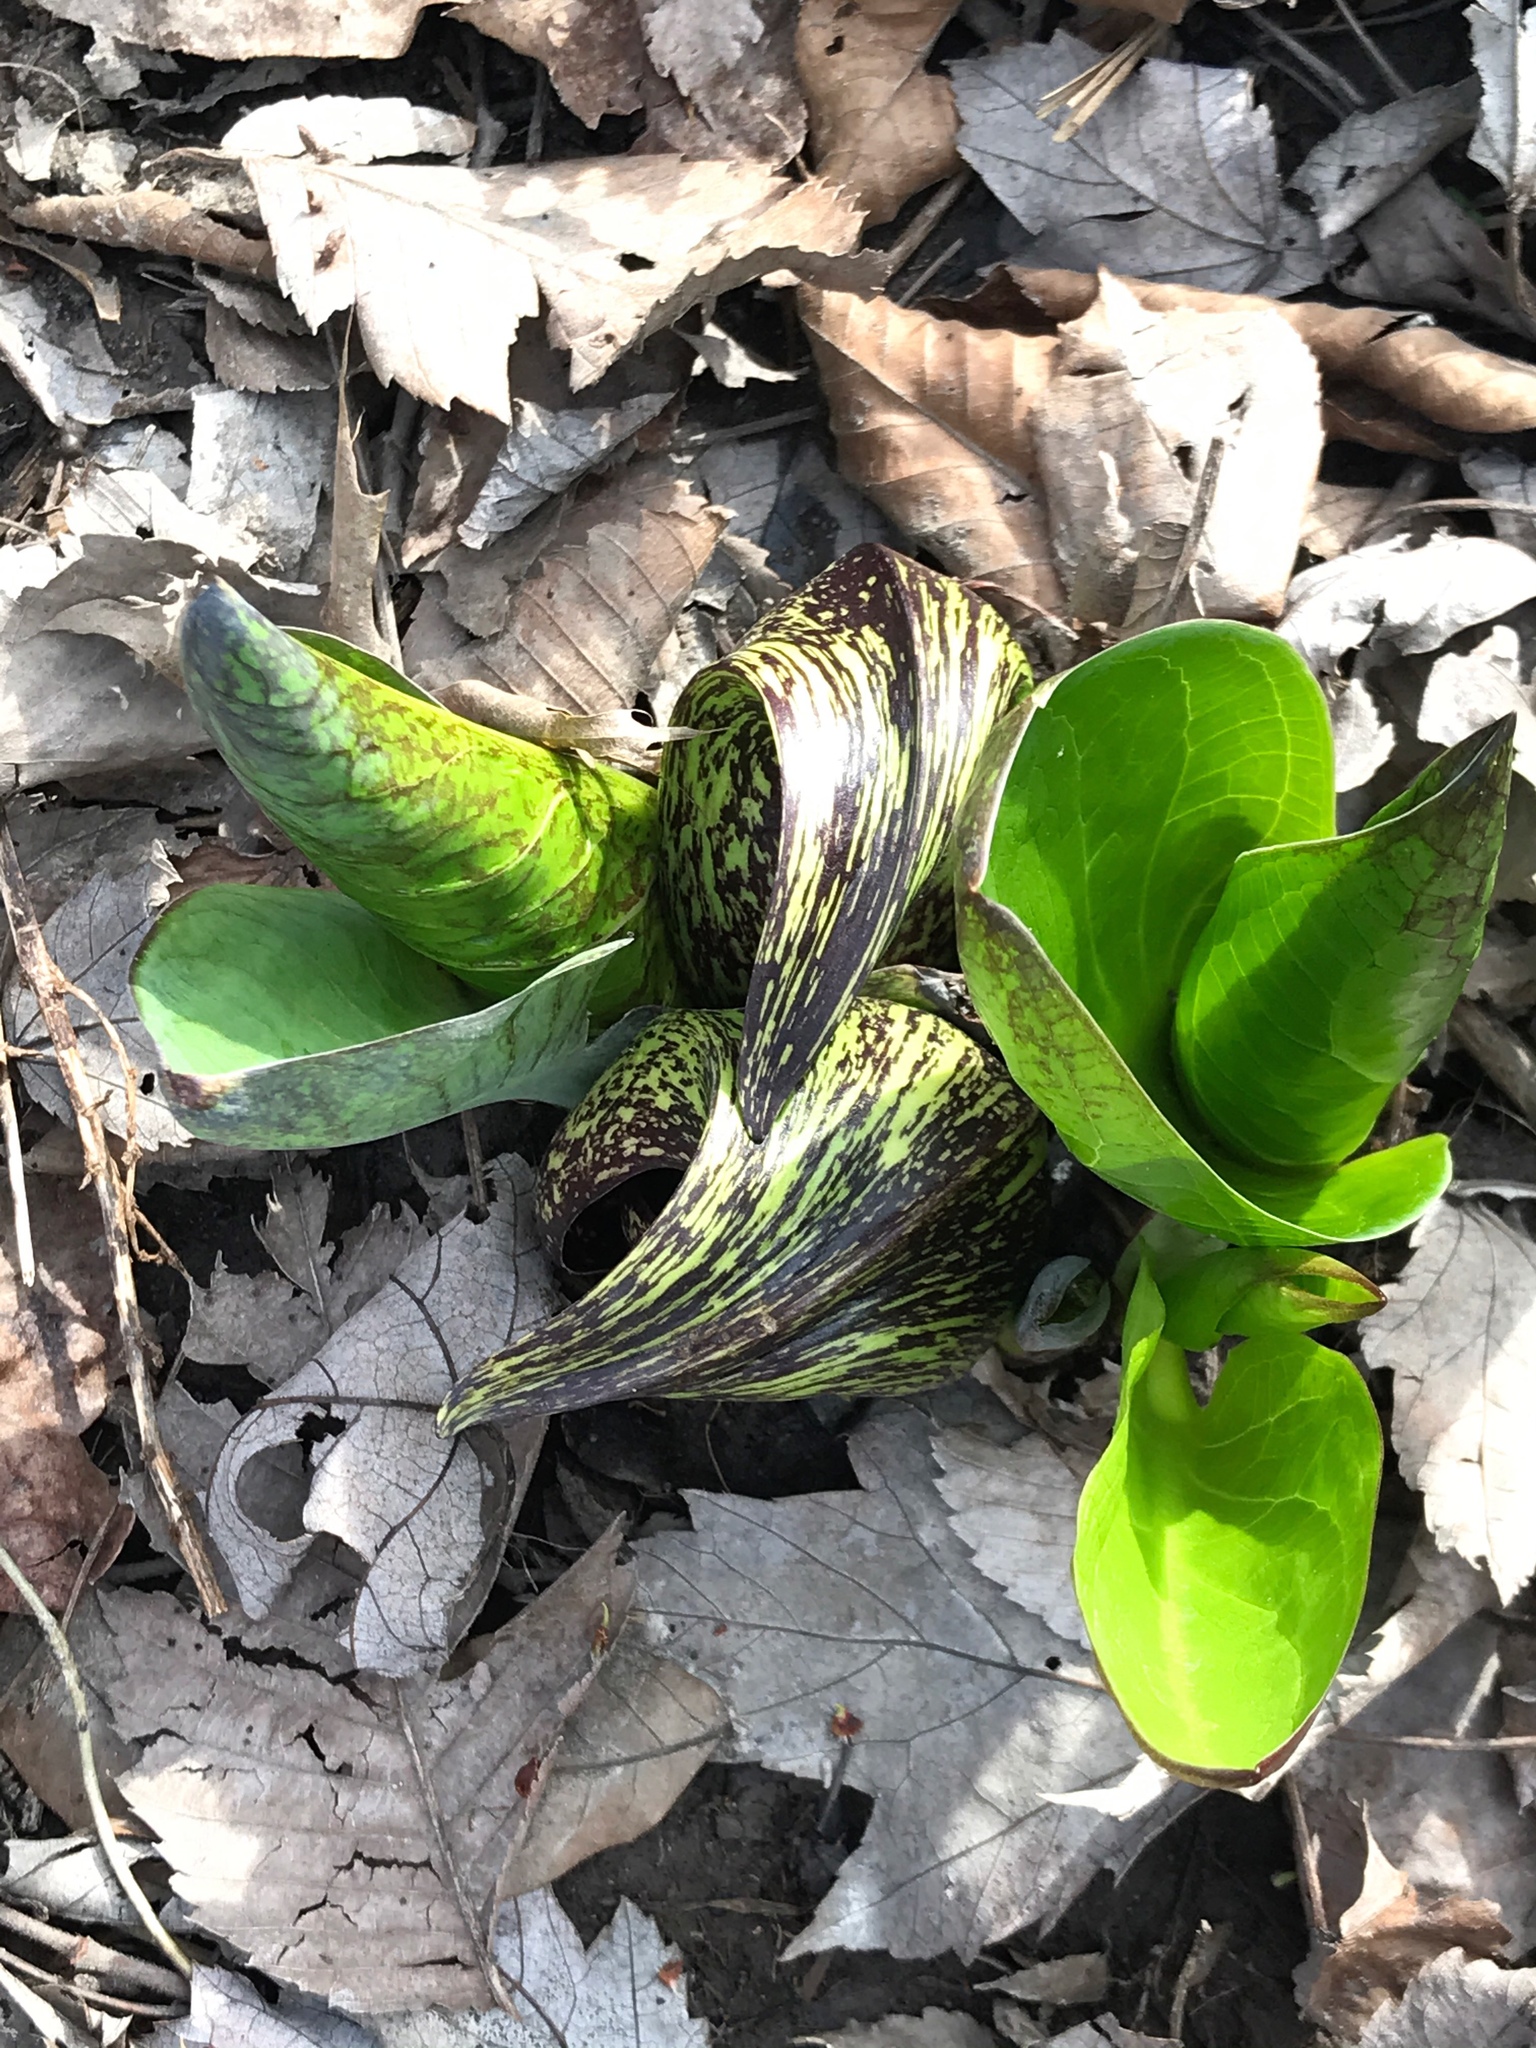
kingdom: Plantae
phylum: Tracheophyta
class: Liliopsida
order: Alismatales
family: Araceae
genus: Symplocarpus
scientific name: Symplocarpus foetidus
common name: Eastern skunk cabbage
